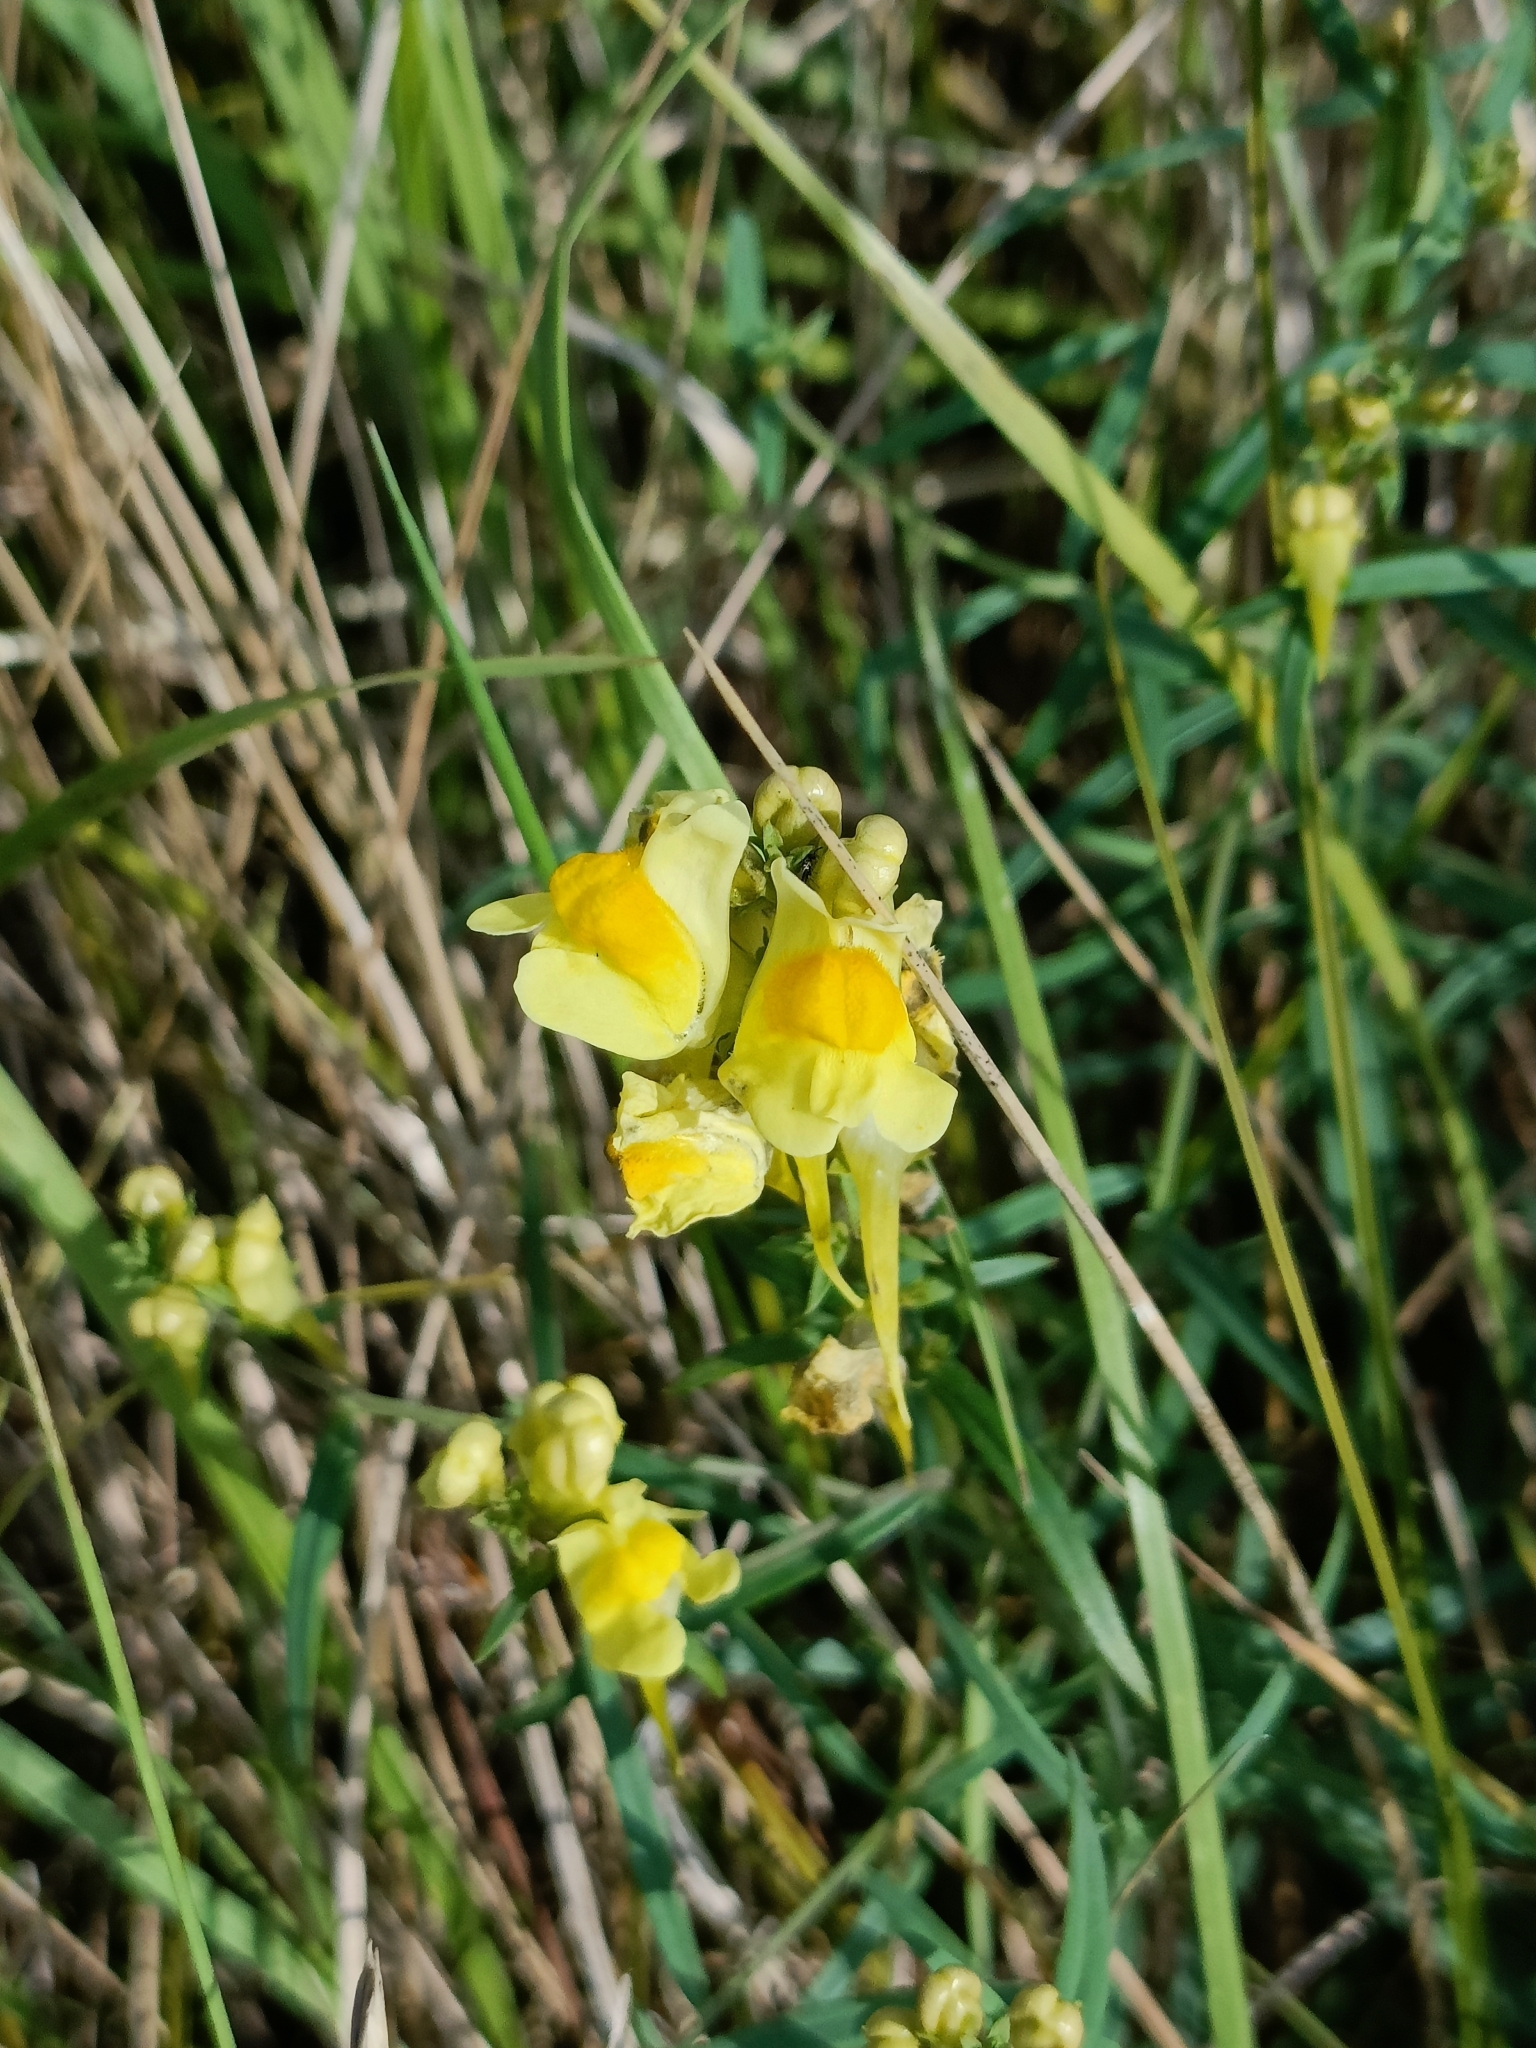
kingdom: Plantae
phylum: Tracheophyta
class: Magnoliopsida
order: Lamiales
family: Plantaginaceae
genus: Linaria
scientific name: Linaria vulgaris
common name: Butter and eggs
